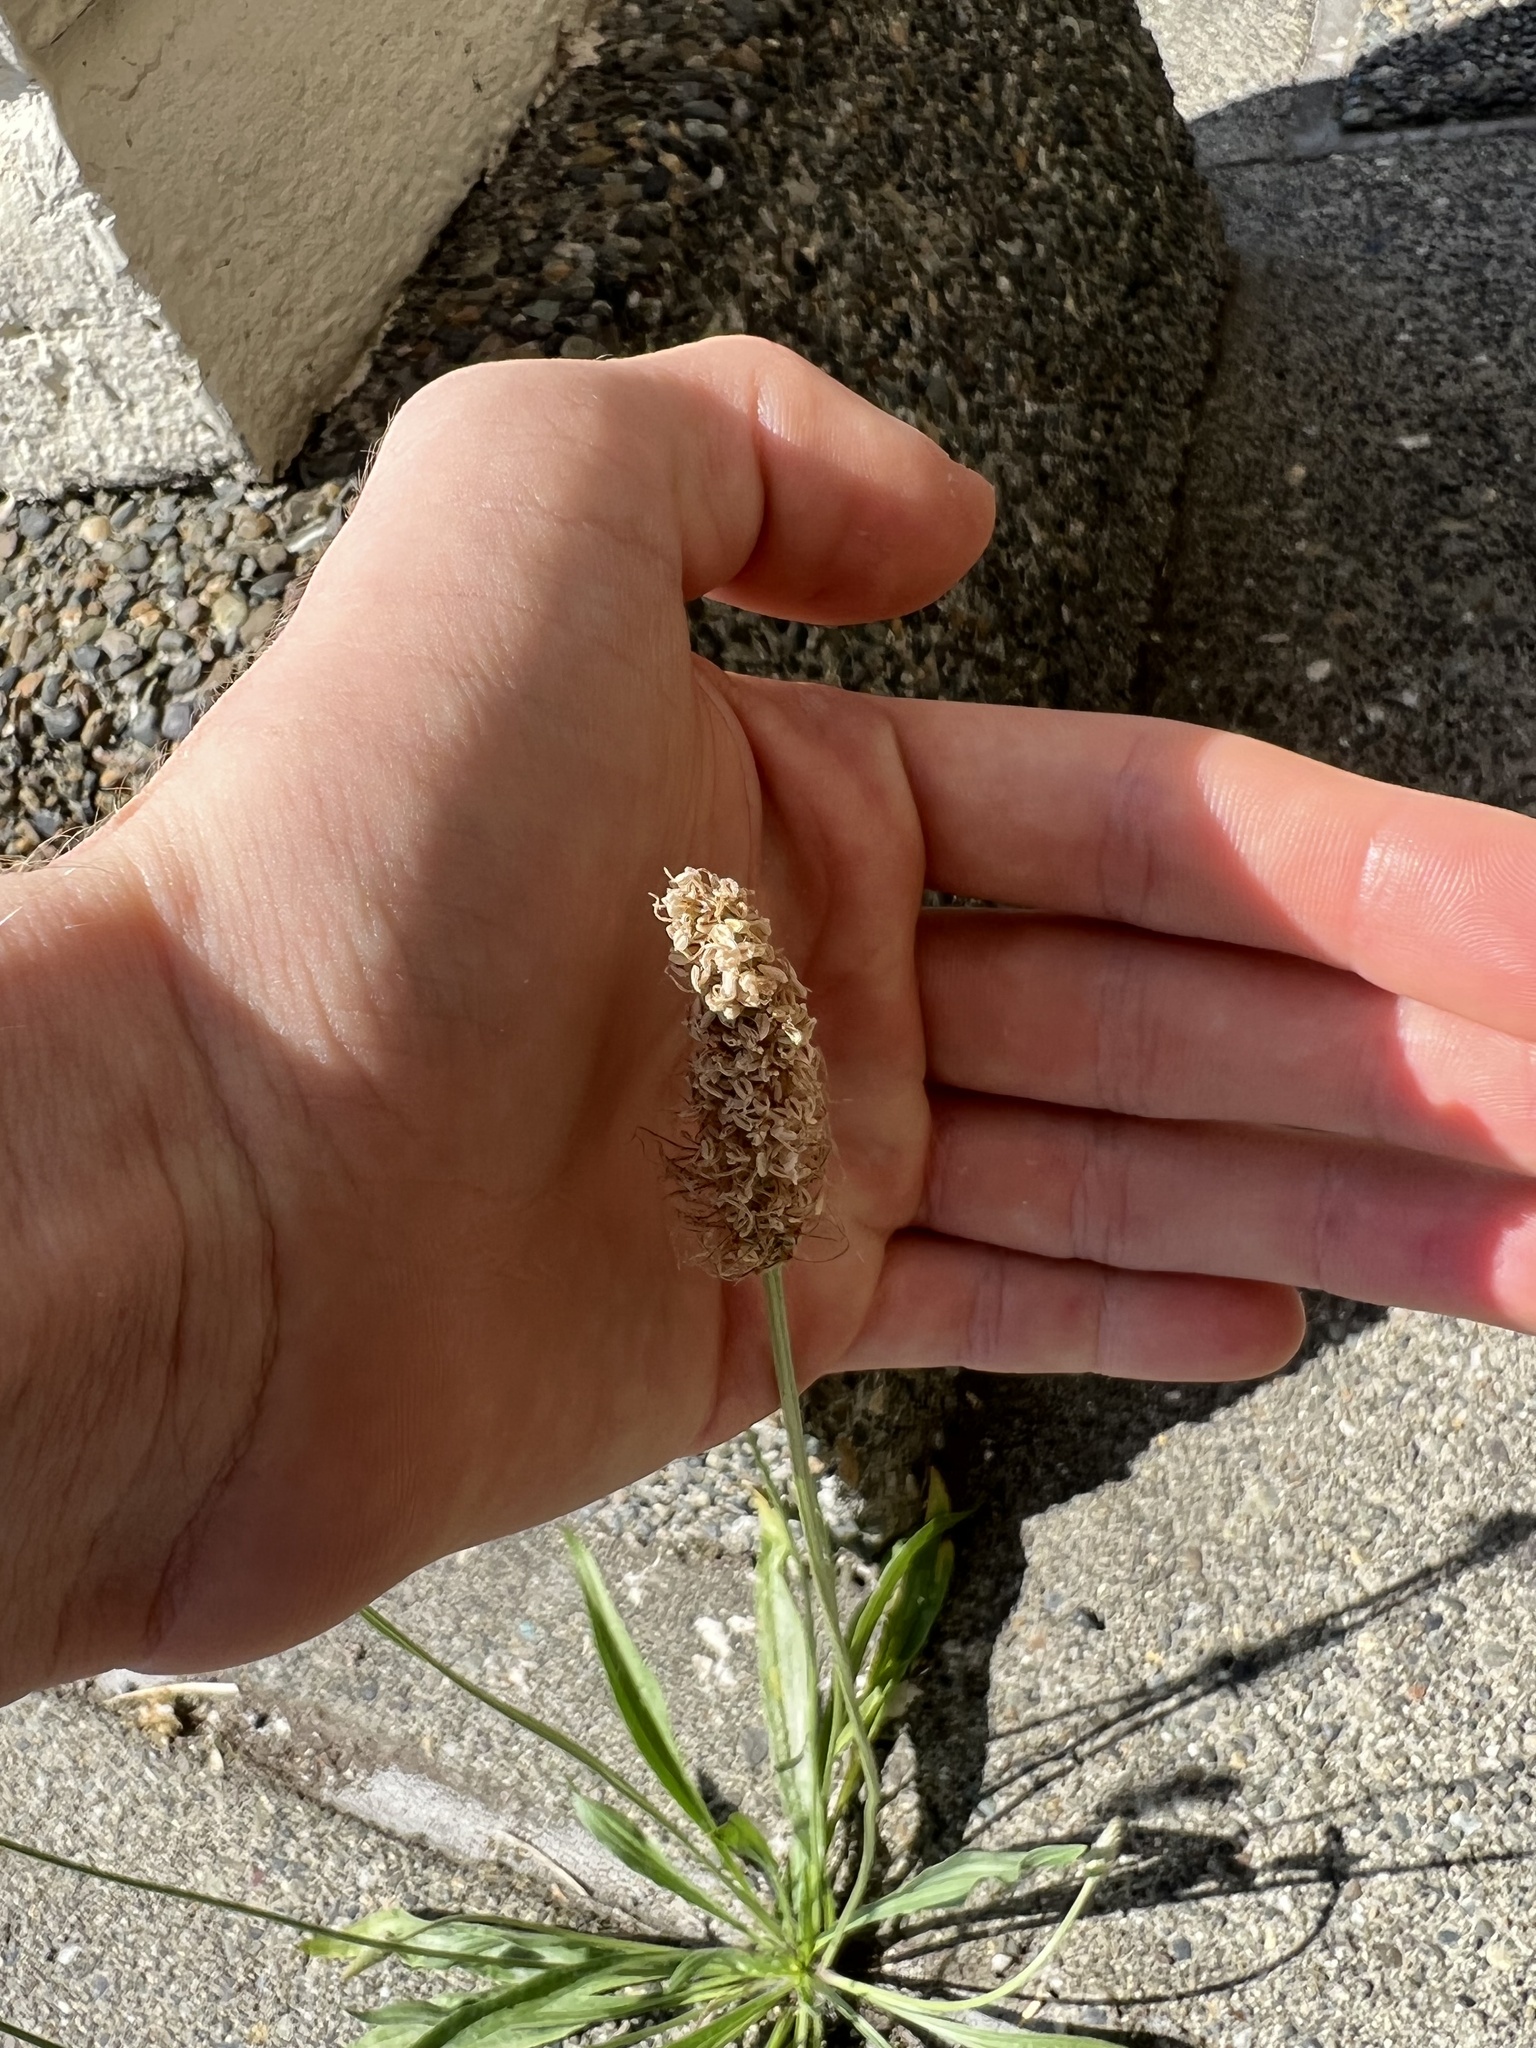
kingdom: Plantae
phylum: Tracheophyta
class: Magnoliopsida
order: Lamiales
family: Plantaginaceae
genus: Plantago
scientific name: Plantago lanceolata
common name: Ribwort plantain
